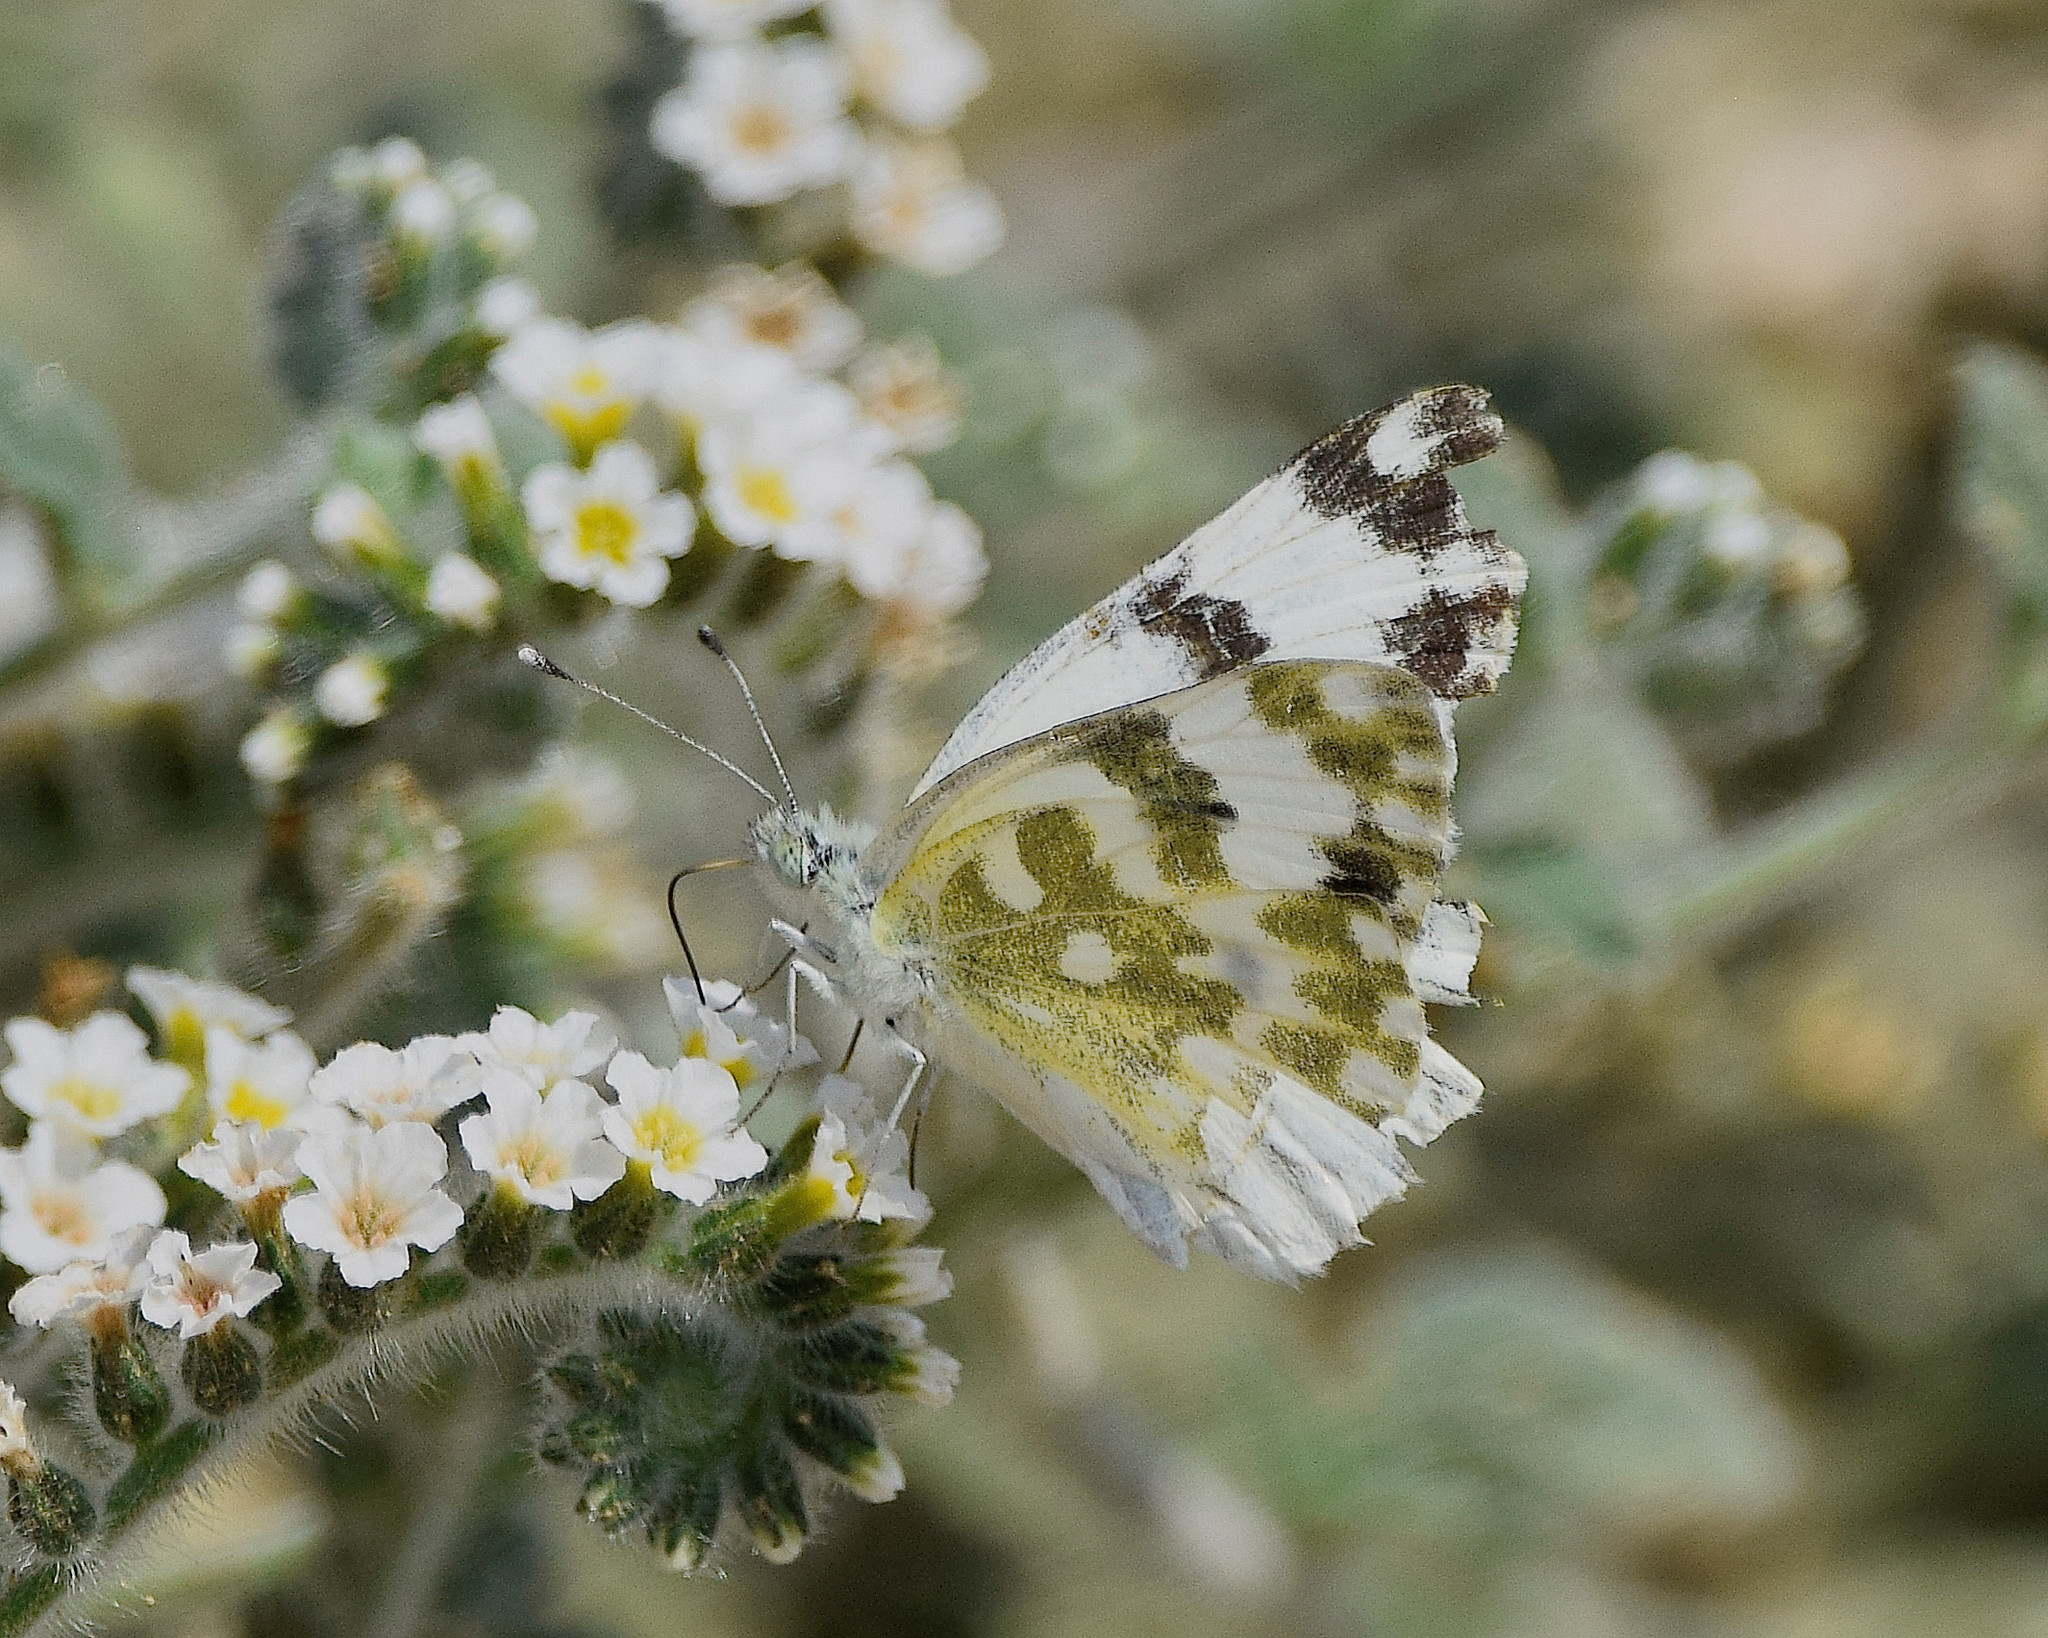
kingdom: Animalia
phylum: Arthropoda
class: Insecta
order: Lepidoptera
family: Pieridae
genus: Pontia
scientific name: Pontia edusa
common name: Eastern bath white
